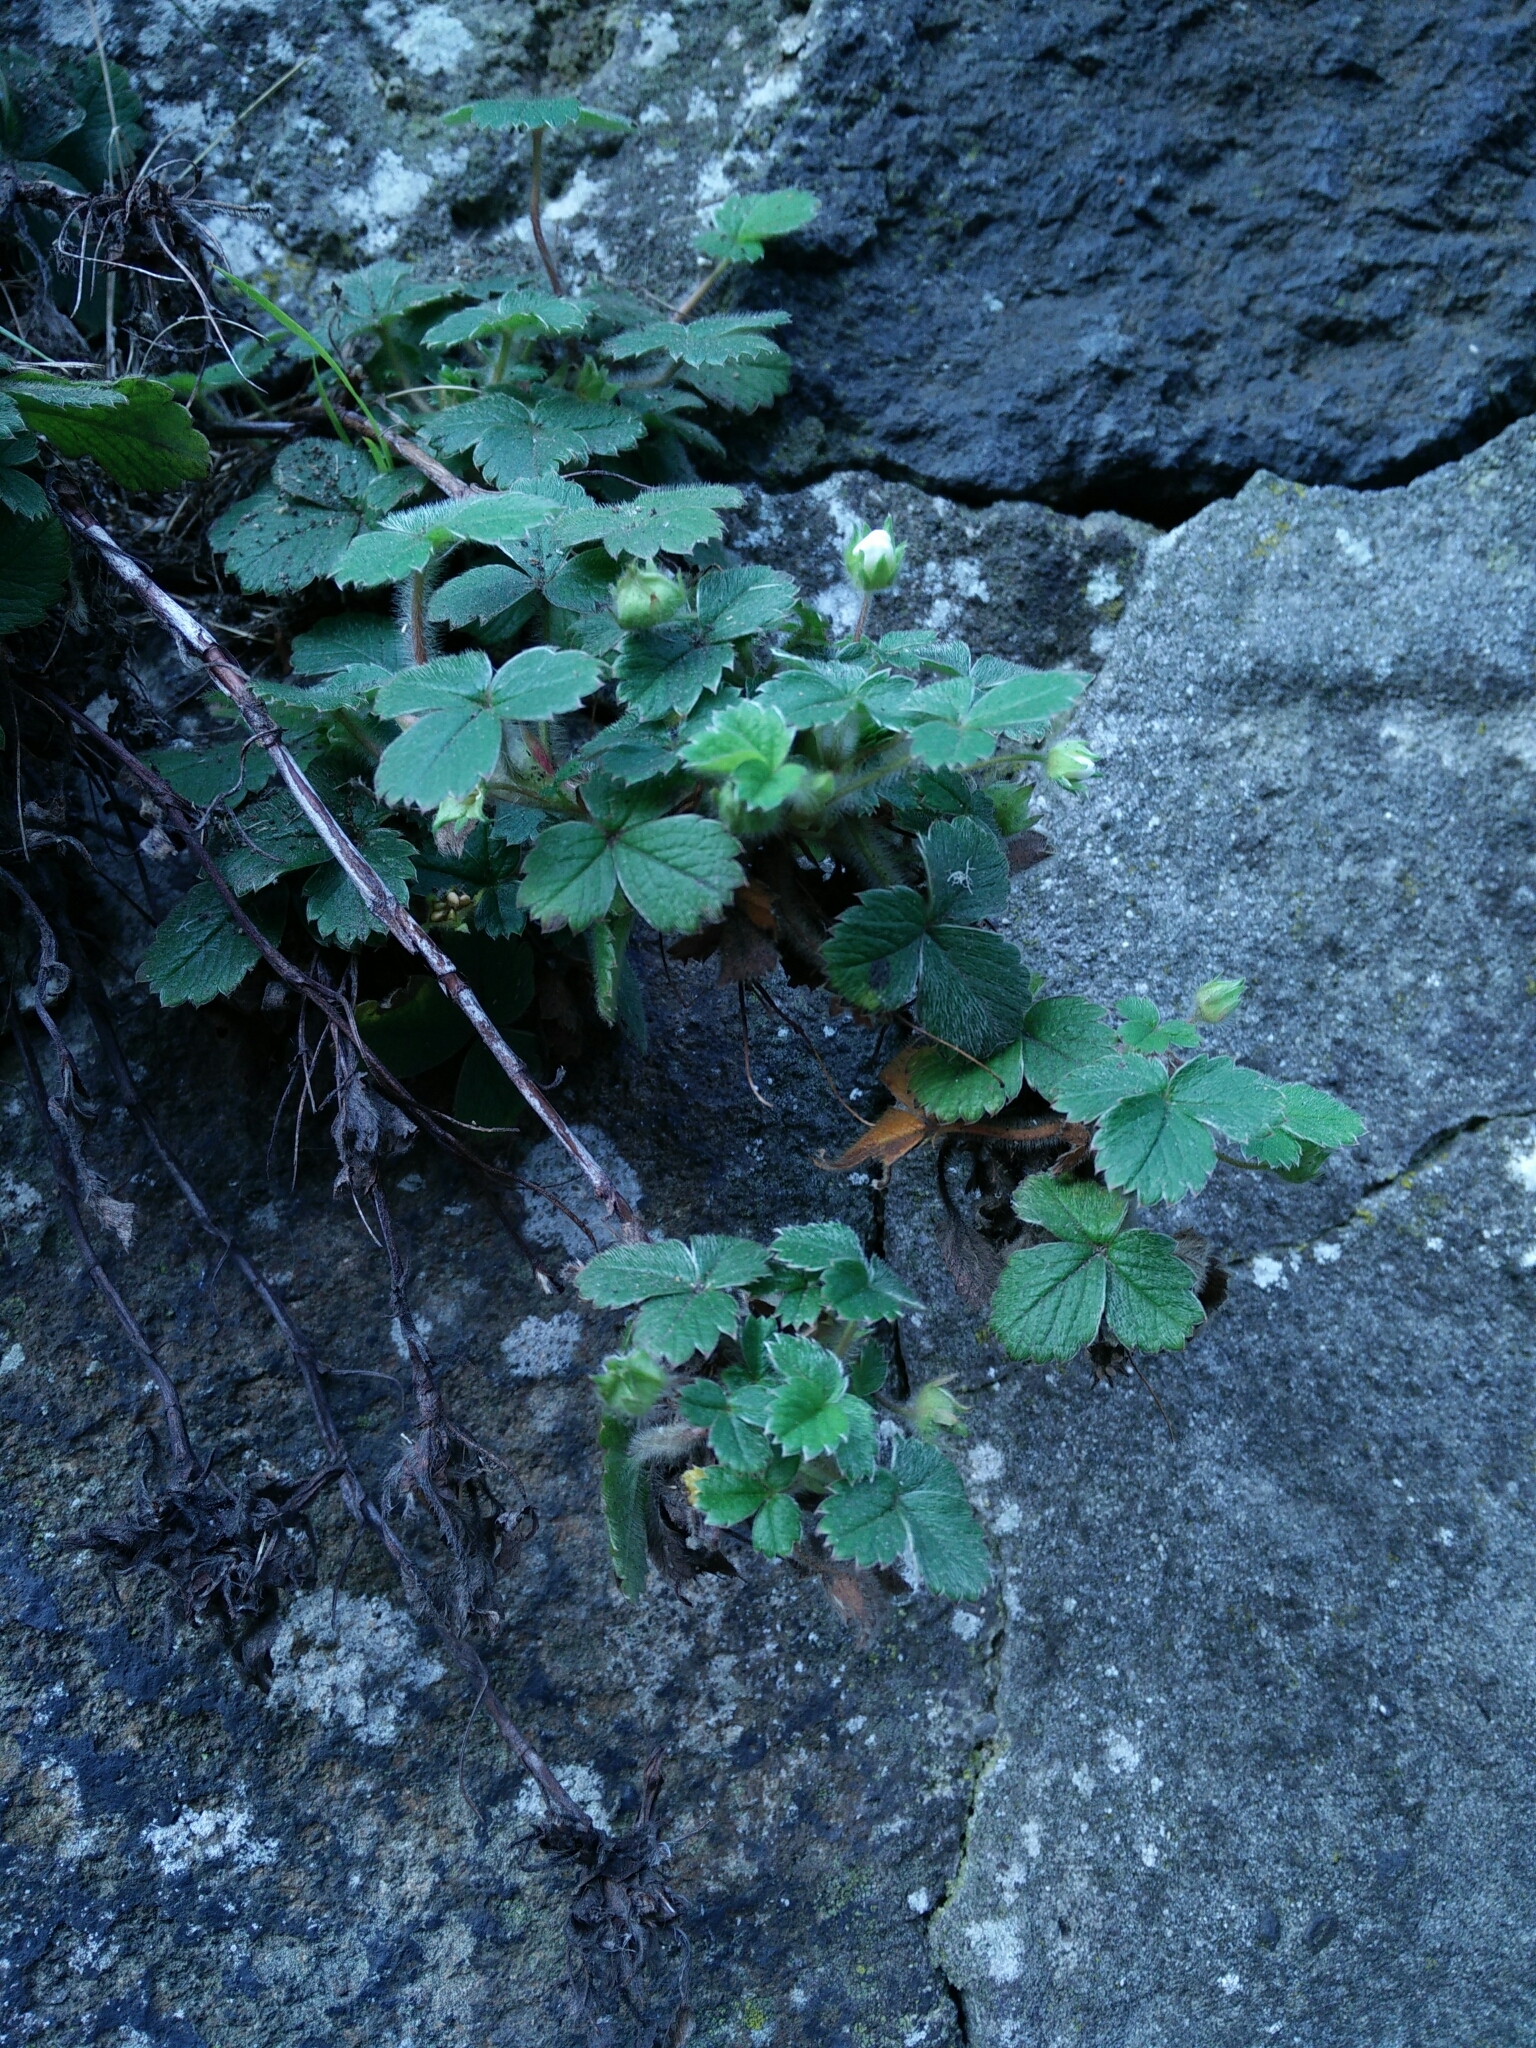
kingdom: Plantae
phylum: Tracheophyta
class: Magnoliopsida
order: Rosales
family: Rosaceae
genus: Potentilla
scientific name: Potentilla sterilis
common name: Barren strawberry
